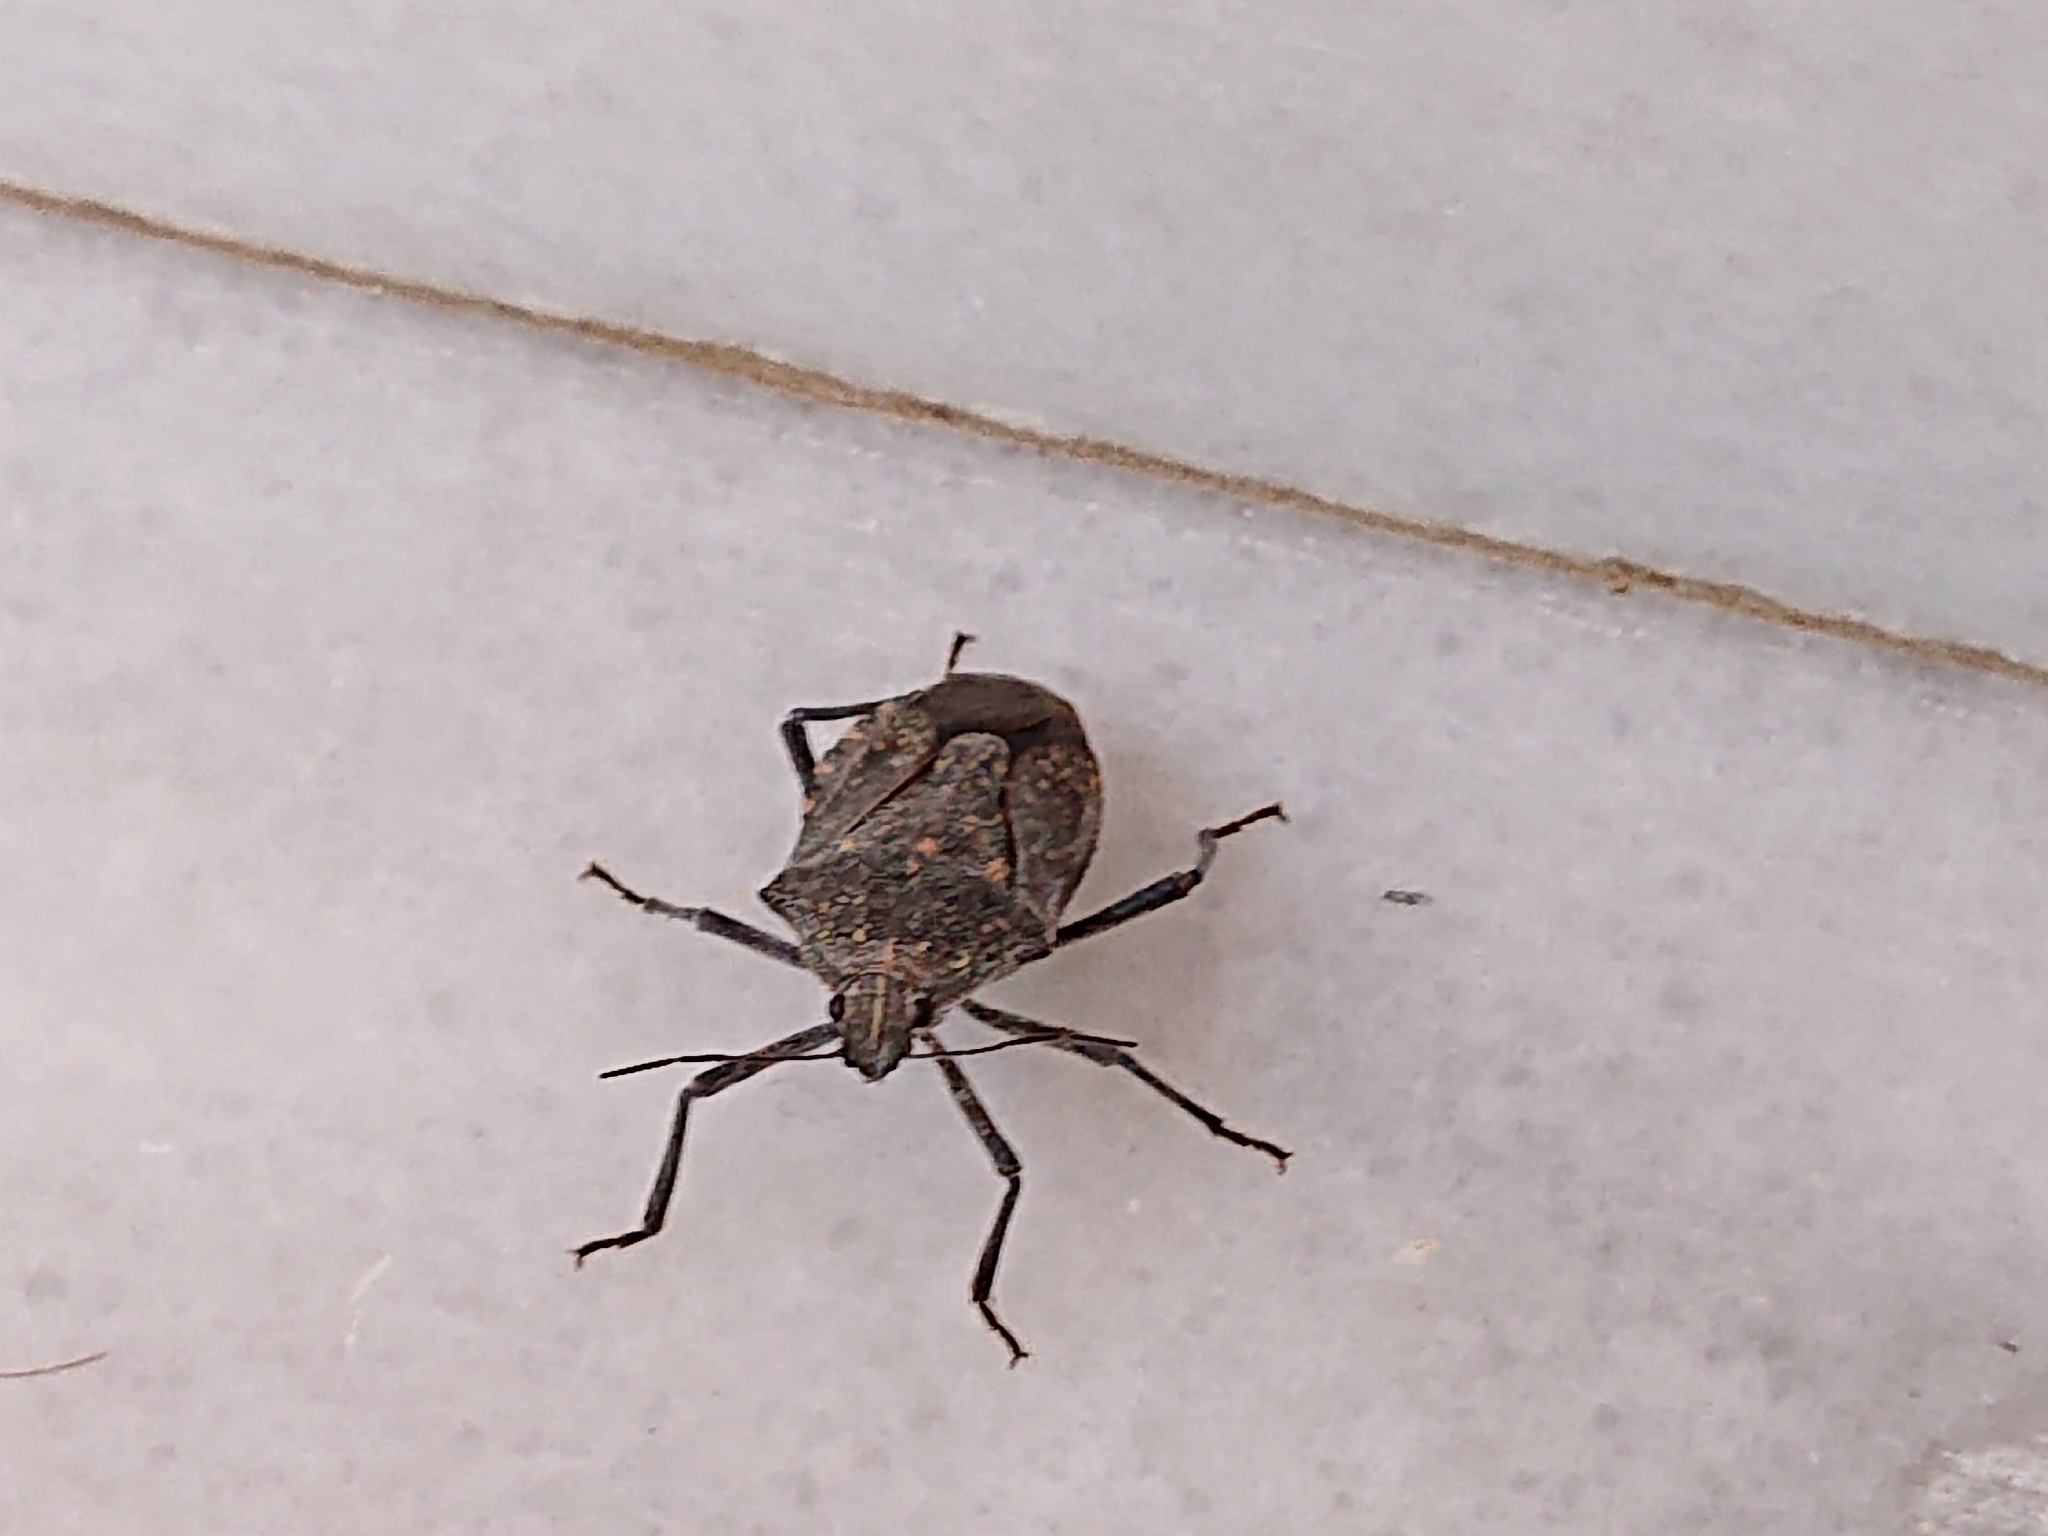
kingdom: Animalia
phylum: Arthropoda
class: Insecta
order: Hemiptera
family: Pentatomidae
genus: Apodiphus
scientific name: Apodiphus amygdali
